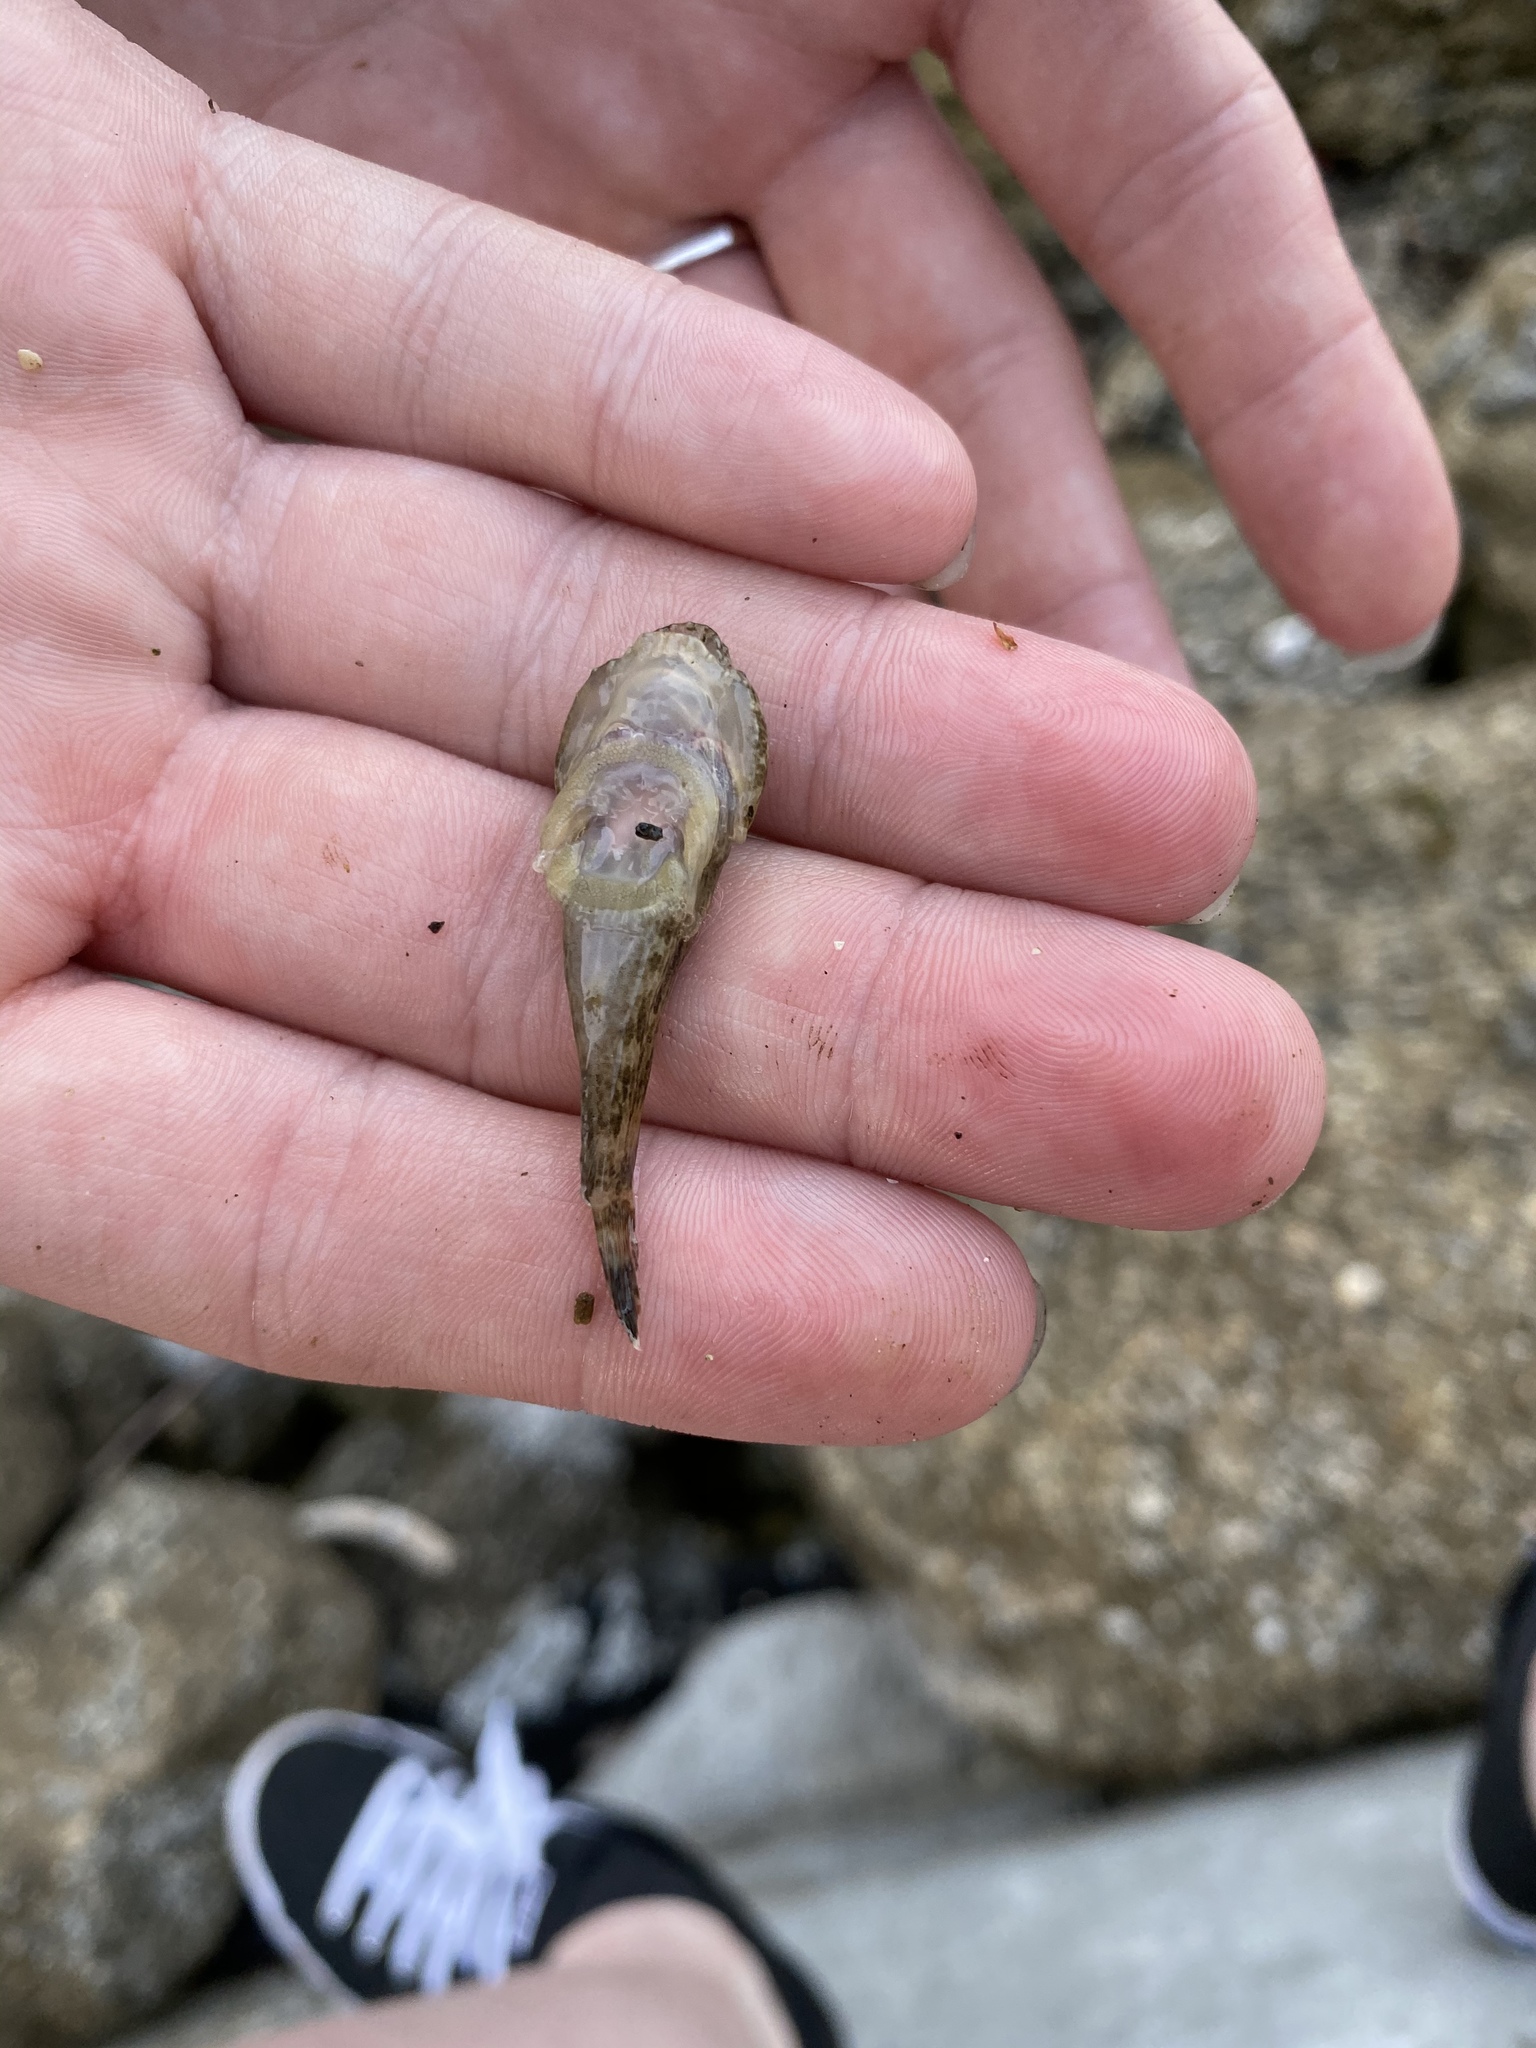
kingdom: Animalia
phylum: Chordata
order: Gobiesociformes
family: Gobiesocidae
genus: Gobiesox
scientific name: Gobiesox strumosus
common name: Skilletfish
